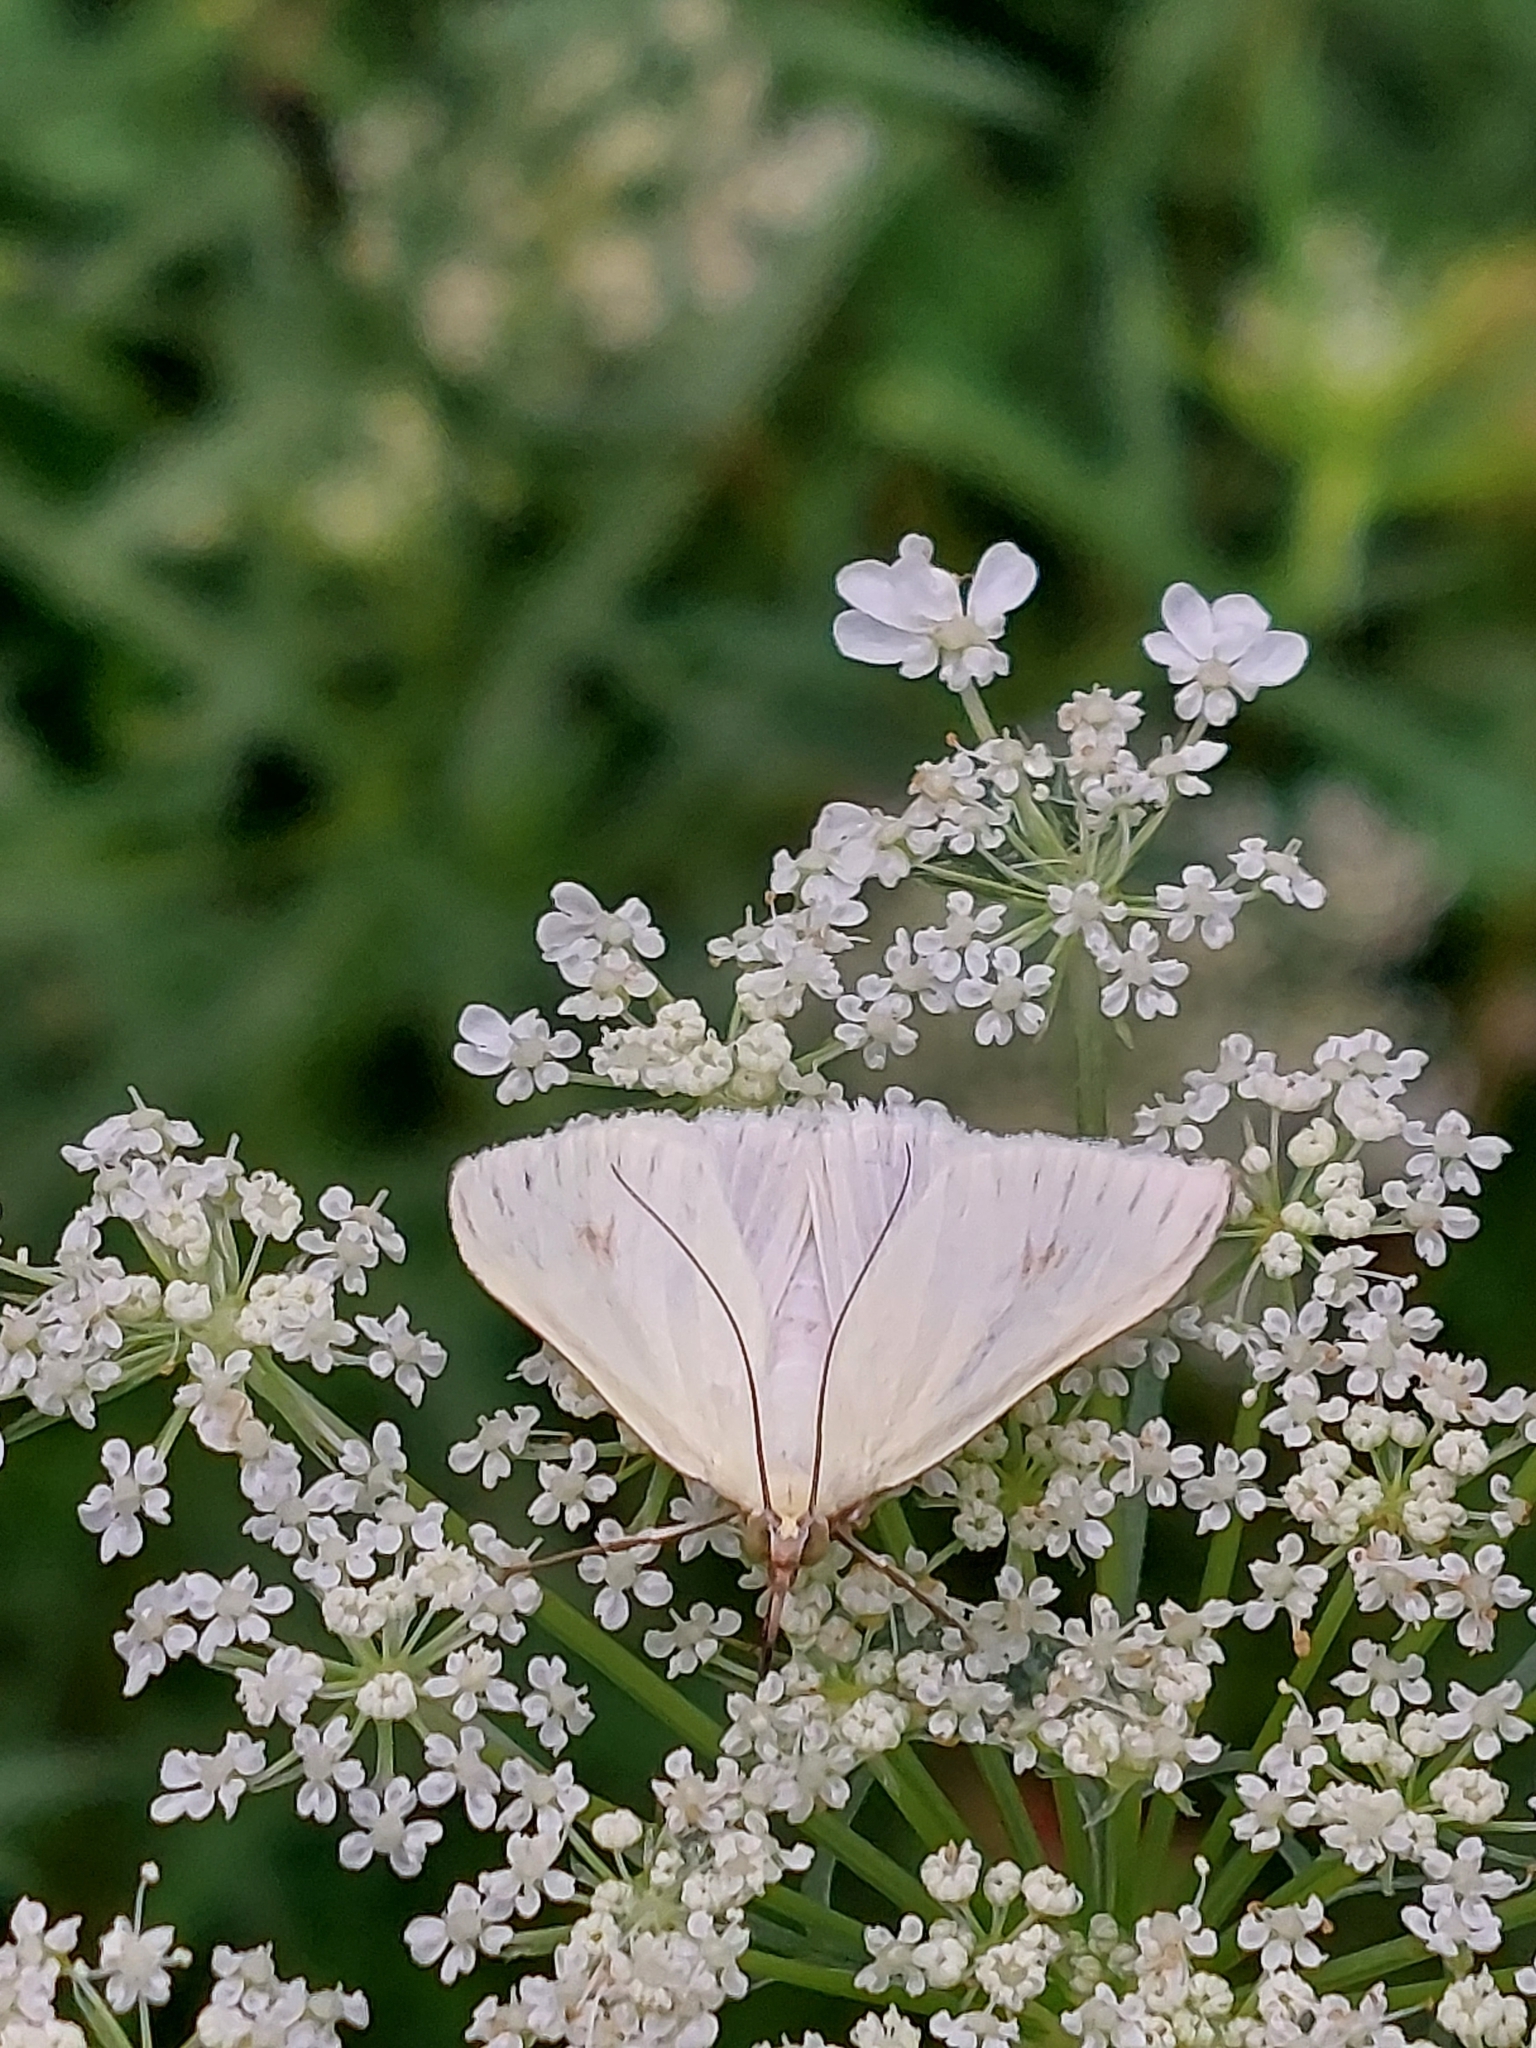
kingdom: Animalia
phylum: Arthropoda
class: Insecta
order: Lepidoptera
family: Crambidae
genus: Sitochroa
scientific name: Sitochroa palealis
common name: Greenish-yellow sitochroa moth
